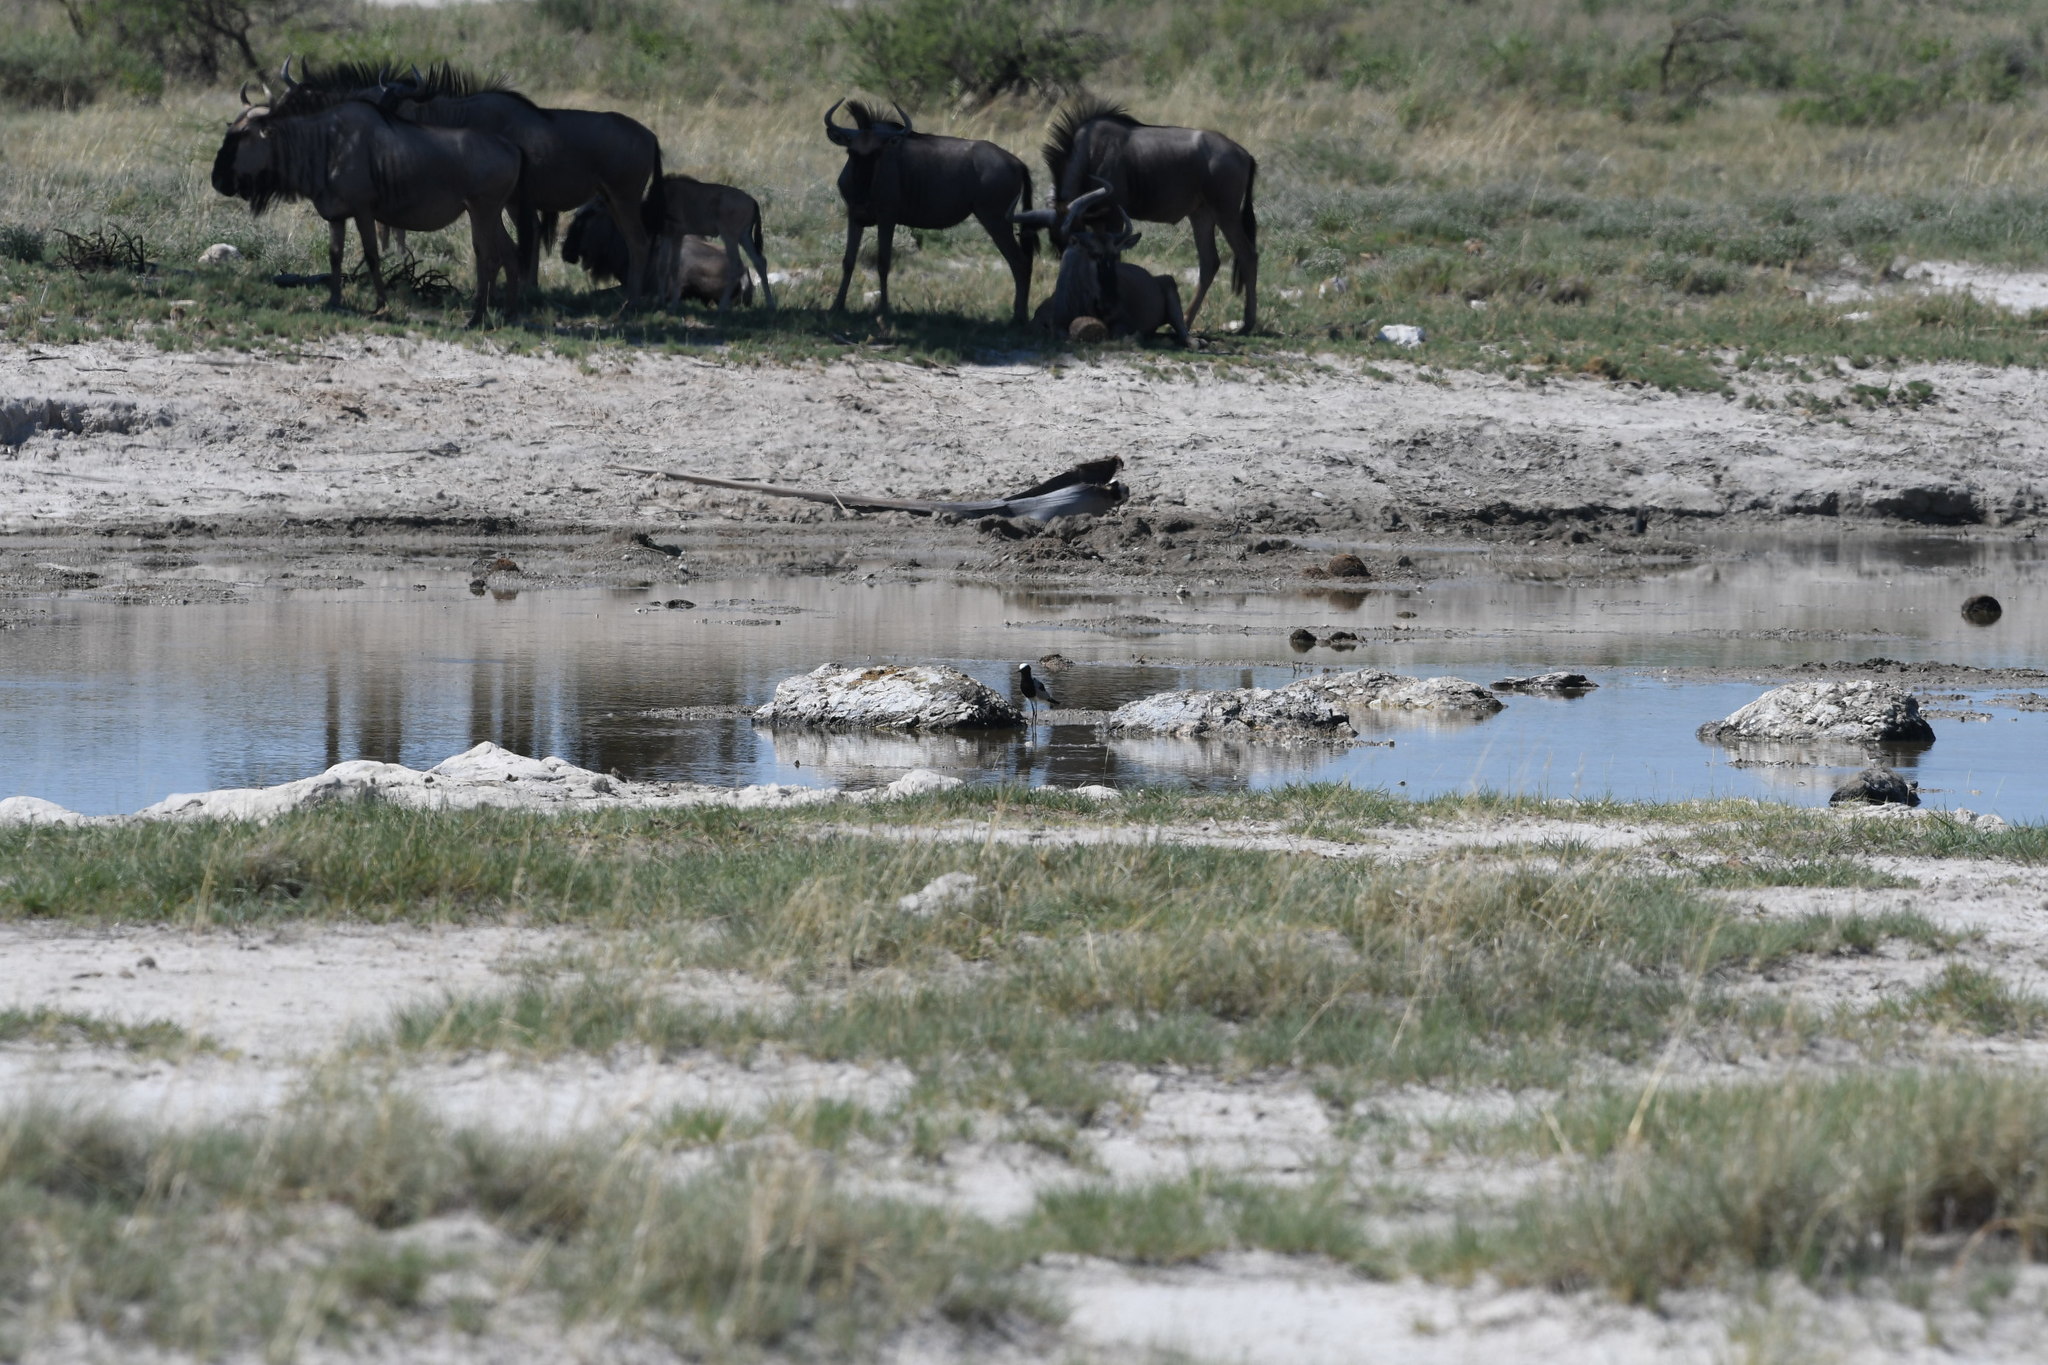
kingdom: Animalia
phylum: Chordata
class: Aves
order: Charadriiformes
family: Charadriidae
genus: Vanellus
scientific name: Vanellus armatus
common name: Blacksmith lapwing
